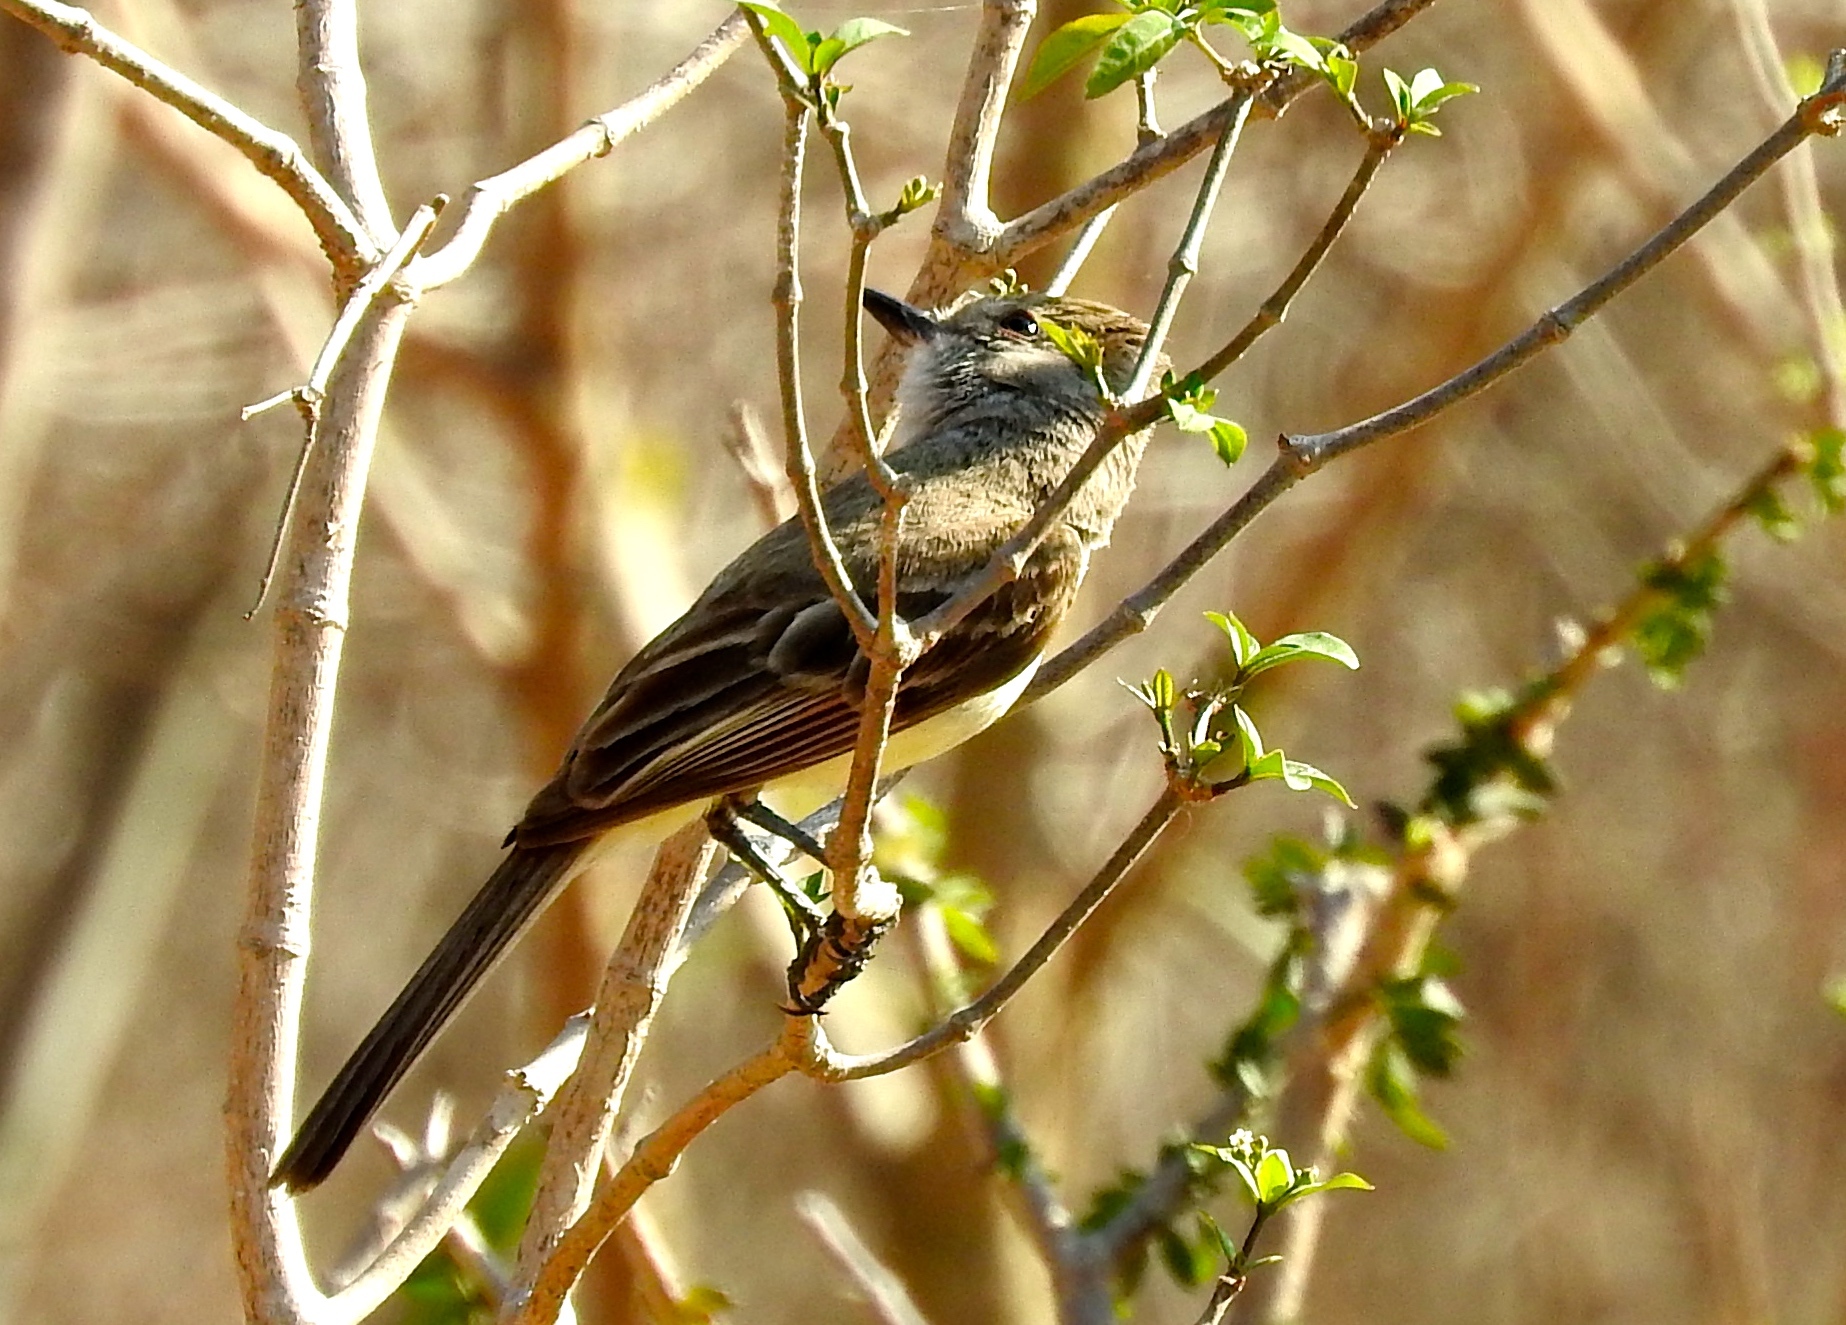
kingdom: Animalia
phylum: Chordata
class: Aves
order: Passeriformes
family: Tyrannidae
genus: Myiarchus
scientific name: Myiarchus
